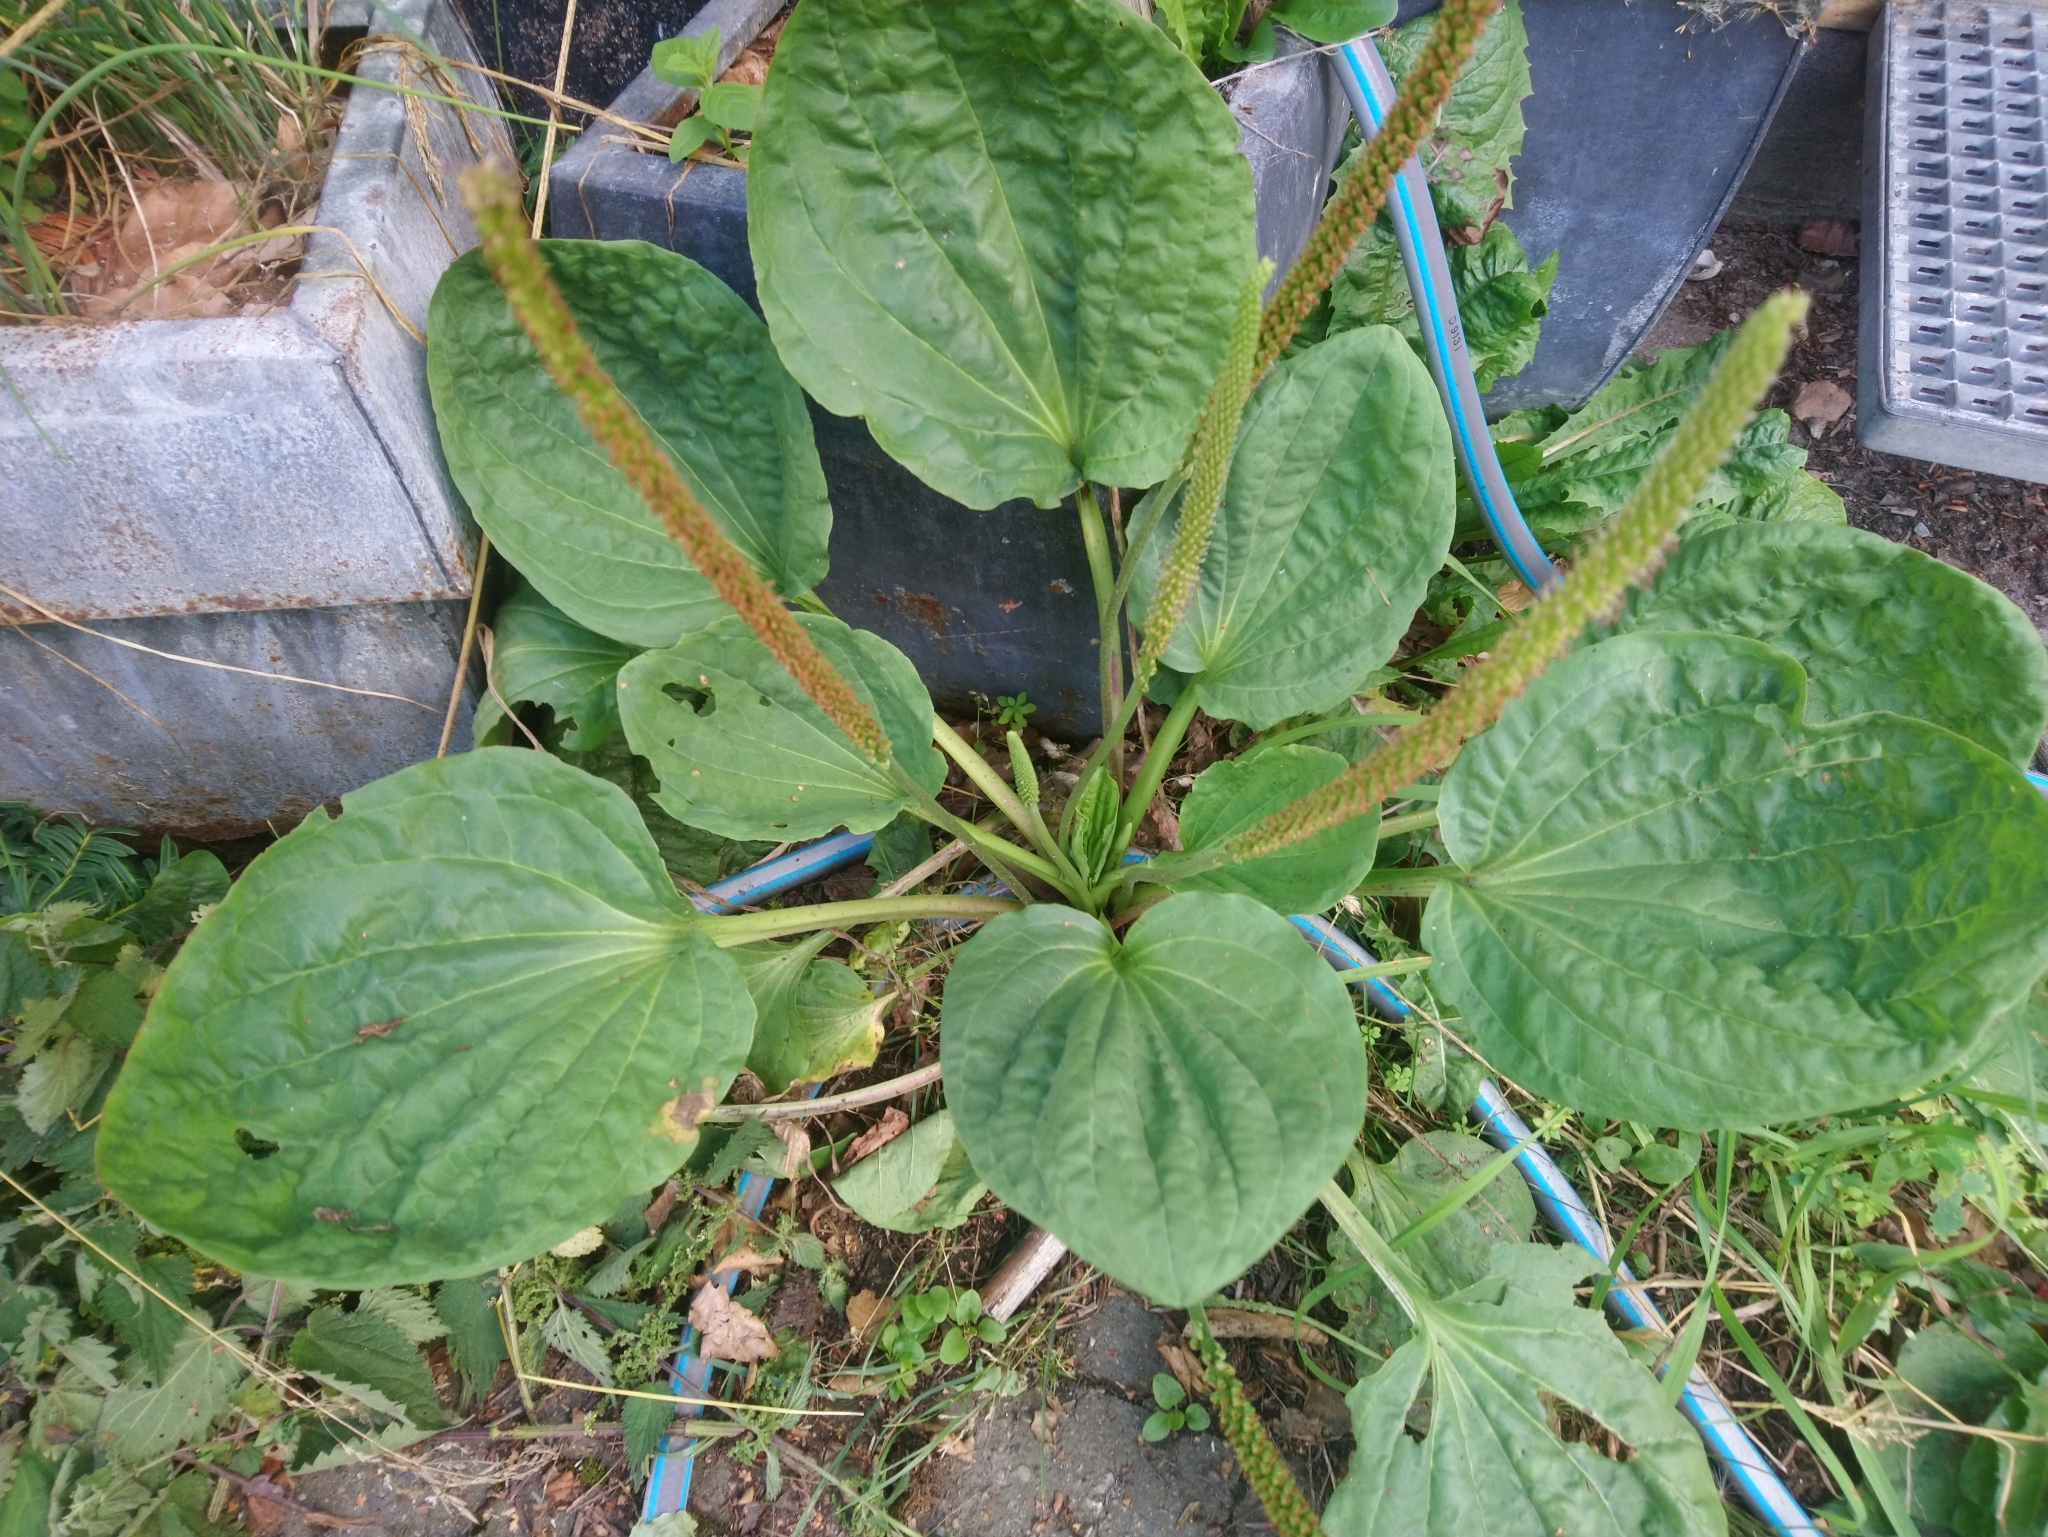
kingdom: Plantae
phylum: Tracheophyta
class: Magnoliopsida
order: Lamiales
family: Plantaginaceae
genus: Plantago
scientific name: Plantago major
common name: Common plantain
